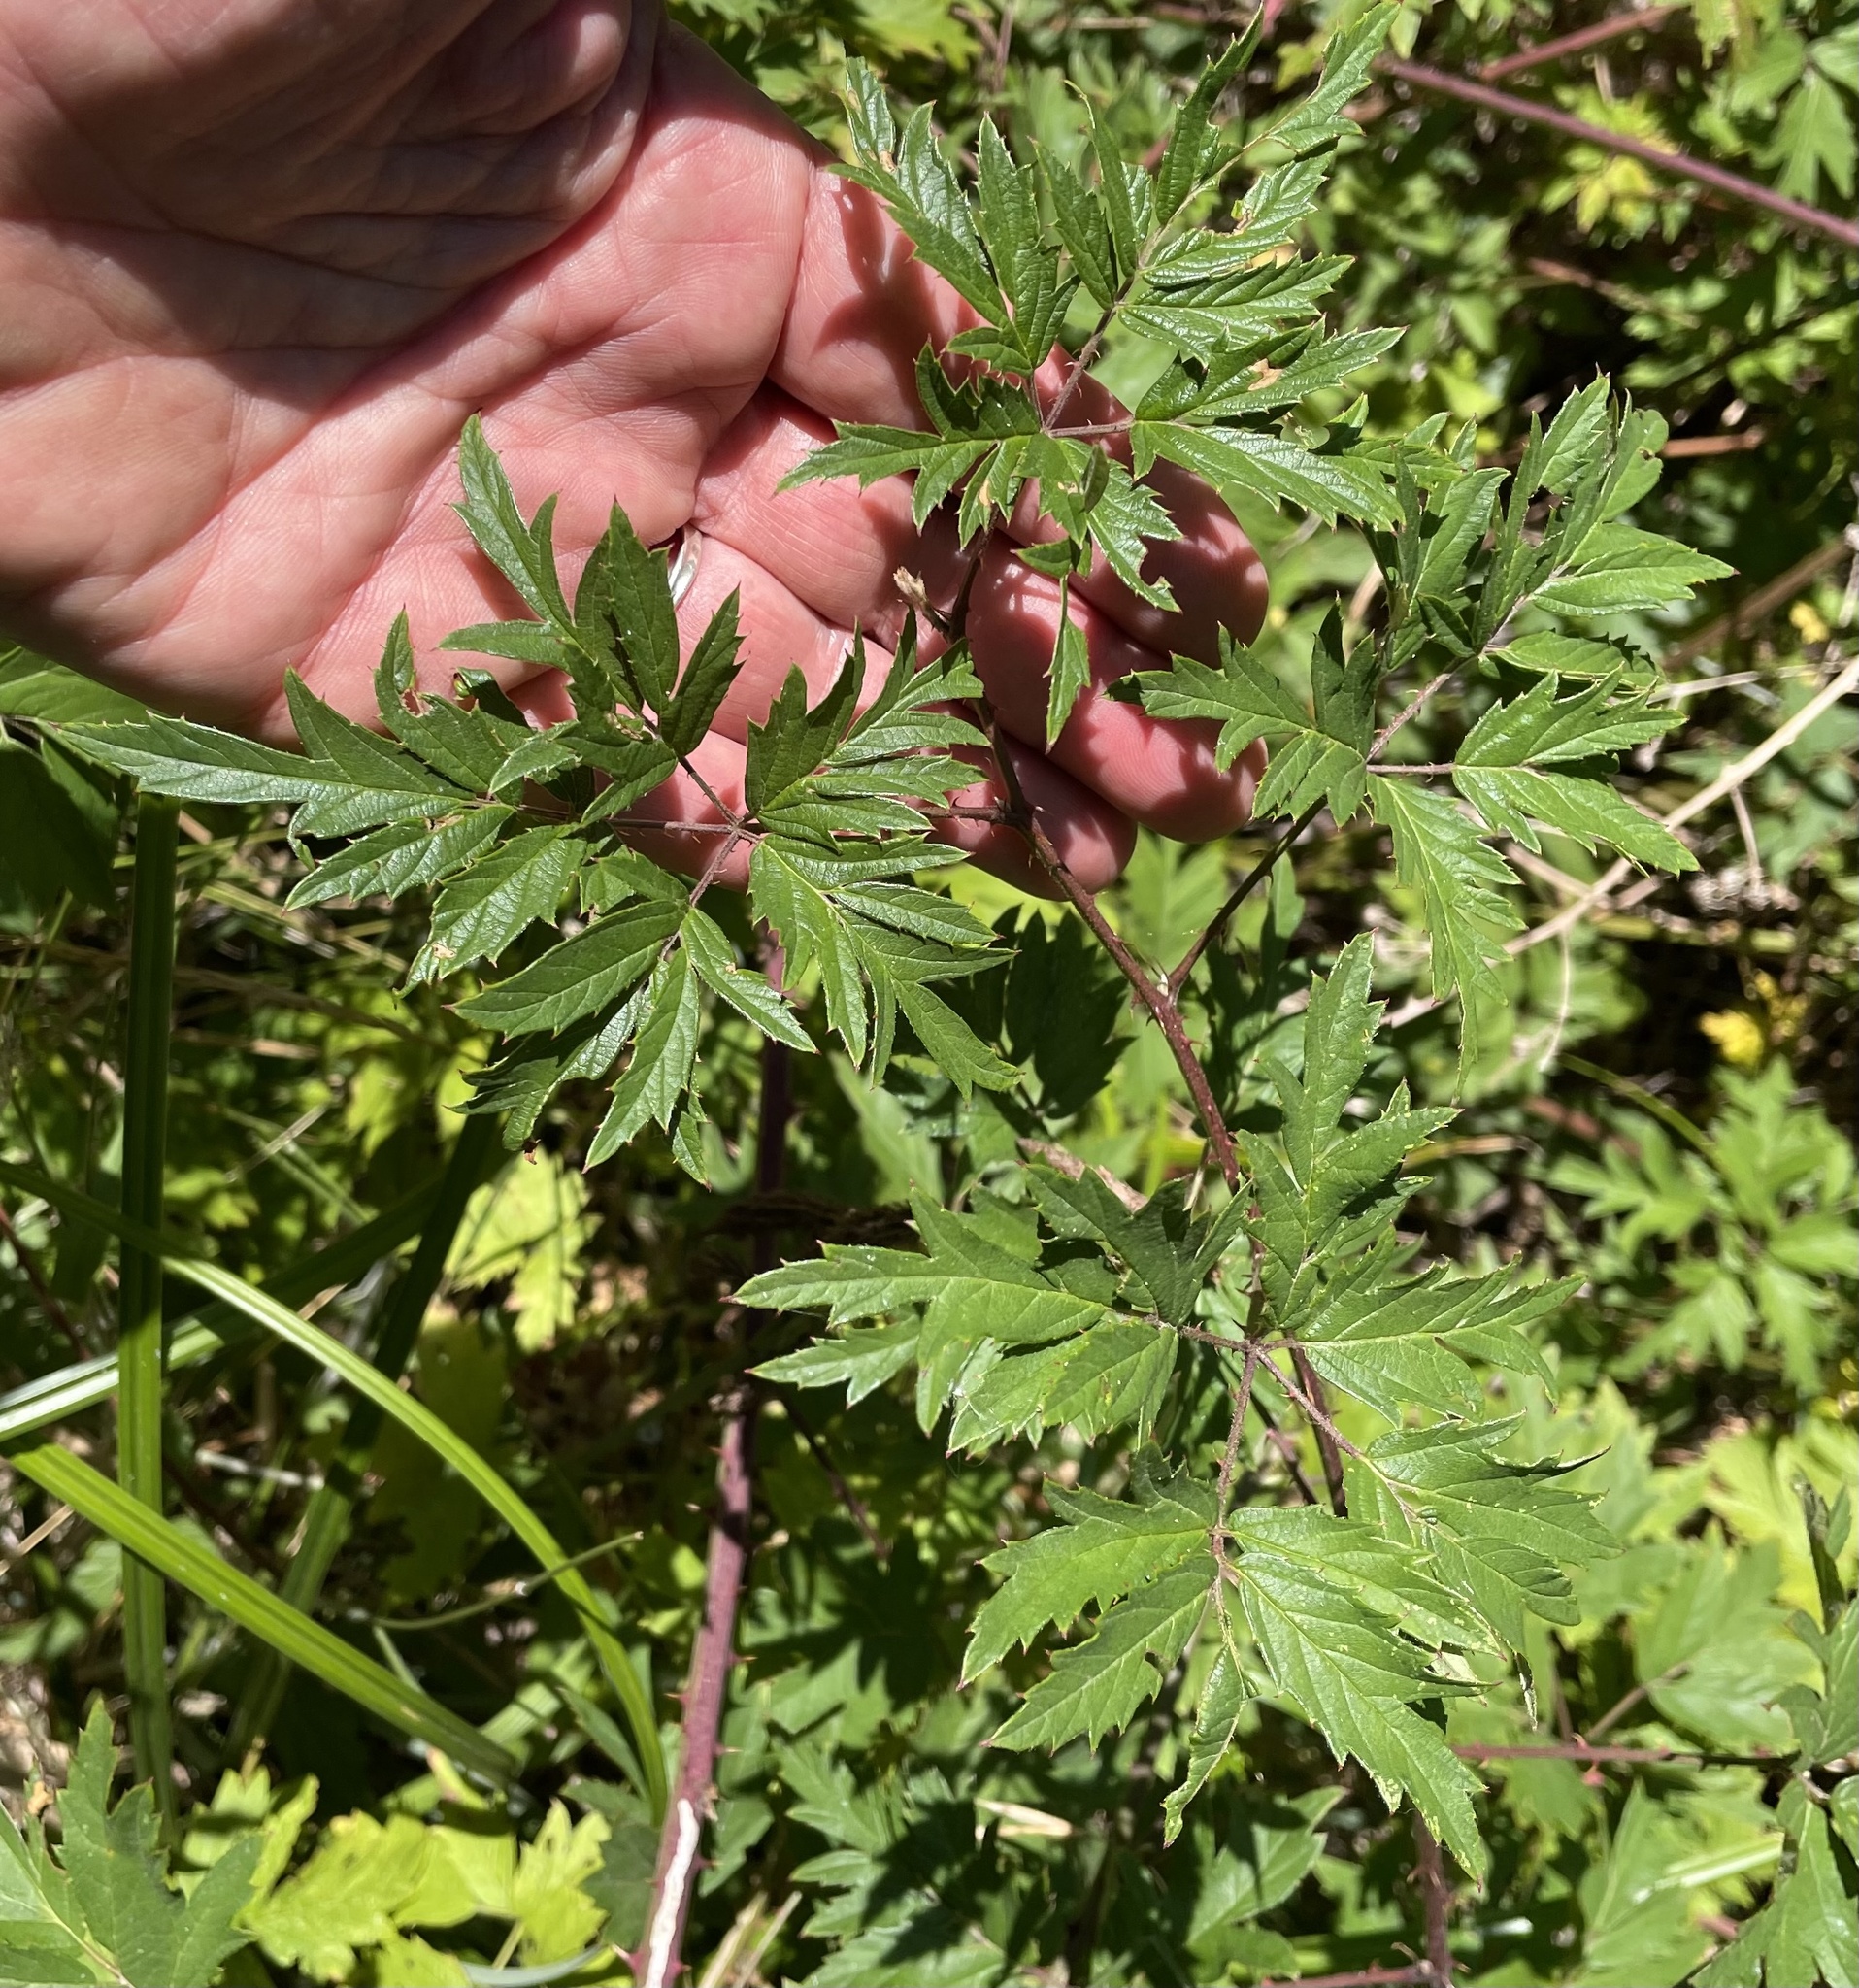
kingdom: Plantae
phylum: Tracheophyta
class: Magnoliopsida
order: Rosales
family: Rosaceae
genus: Rubus
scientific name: Rubus laciniatus
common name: Evergreen blackberry
